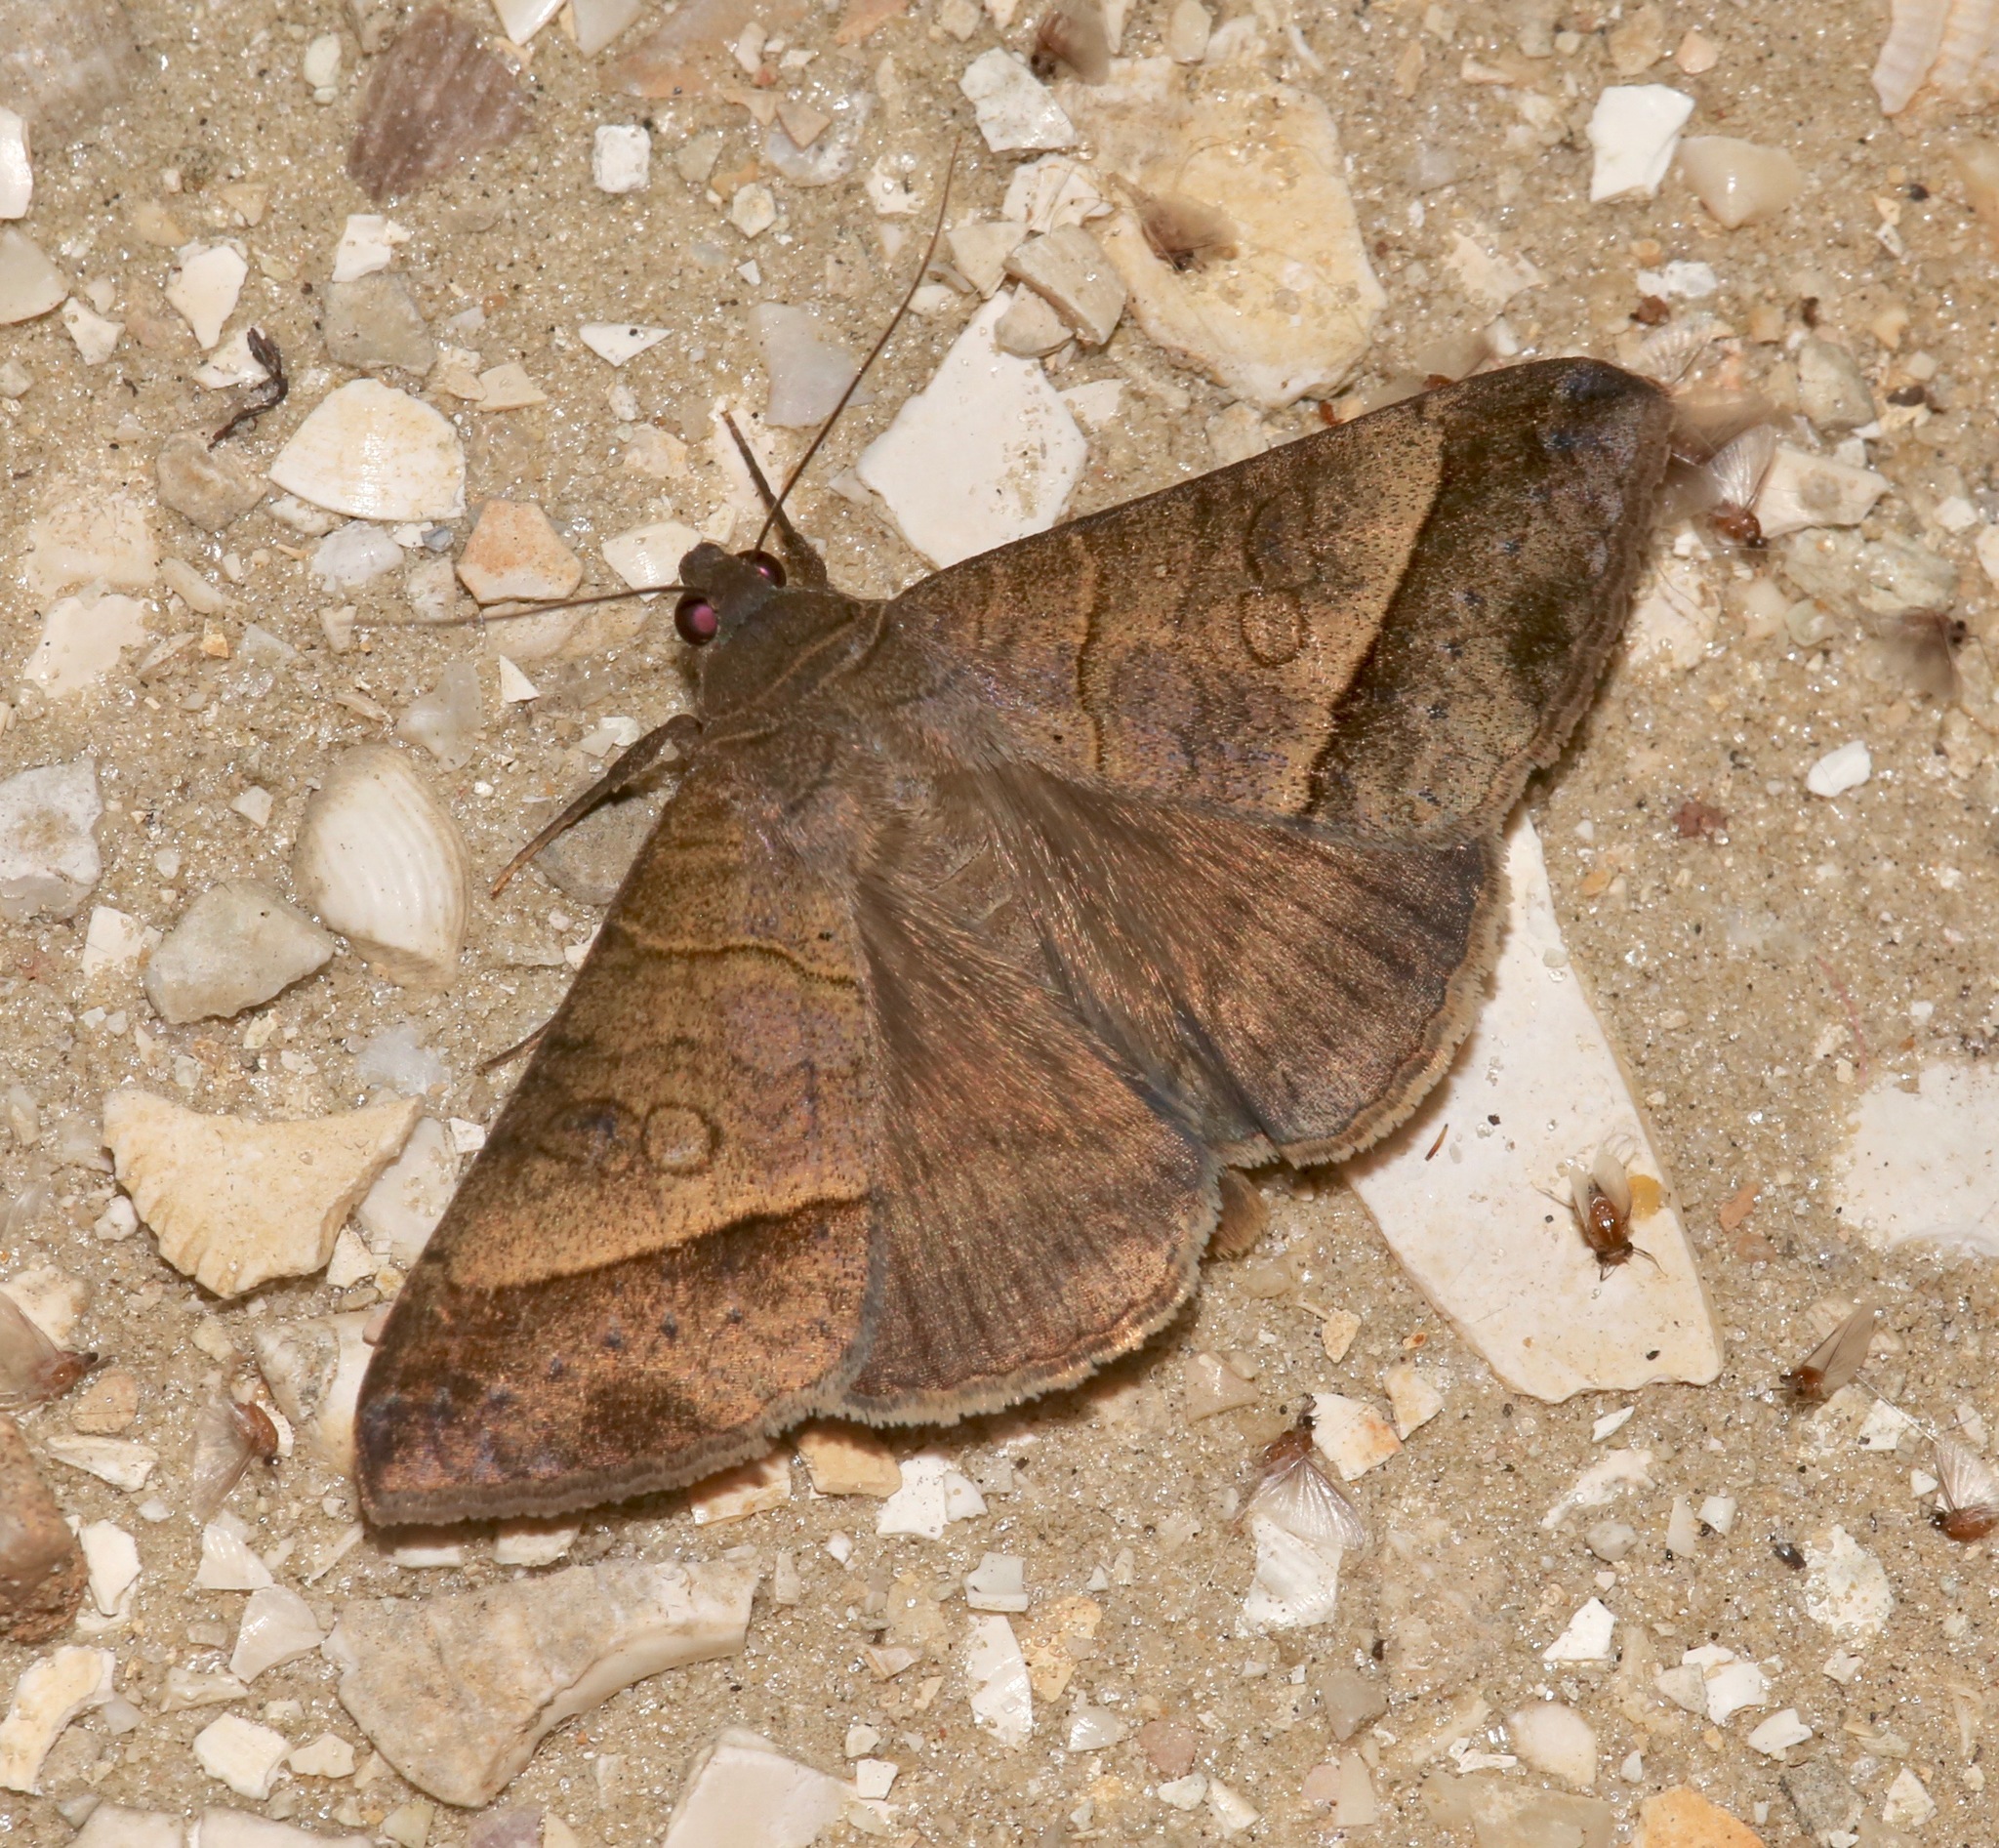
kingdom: Animalia
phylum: Arthropoda
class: Insecta
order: Lepidoptera
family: Erebidae
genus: Mocis
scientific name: Mocis latipes
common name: Striped grass looper
